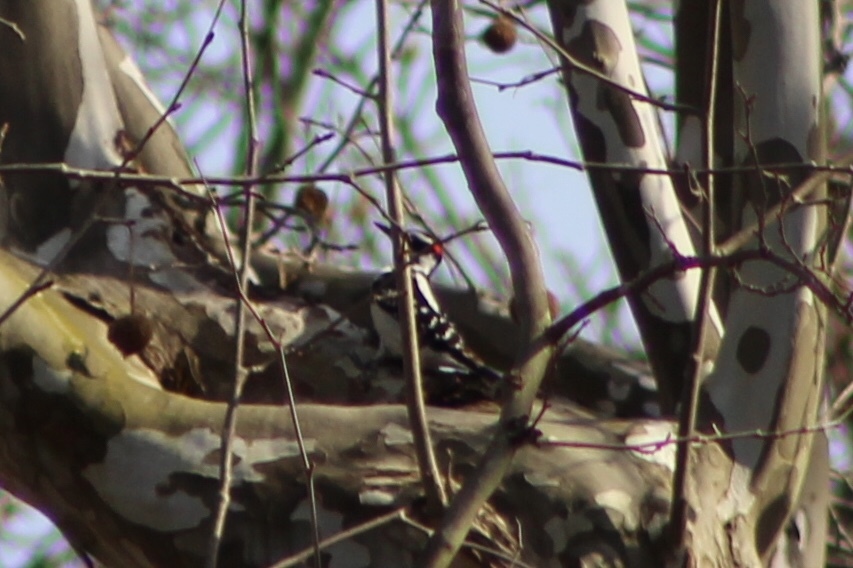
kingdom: Animalia
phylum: Chordata
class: Aves
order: Piciformes
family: Picidae
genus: Leuconotopicus
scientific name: Leuconotopicus villosus
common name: Hairy woodpecker
